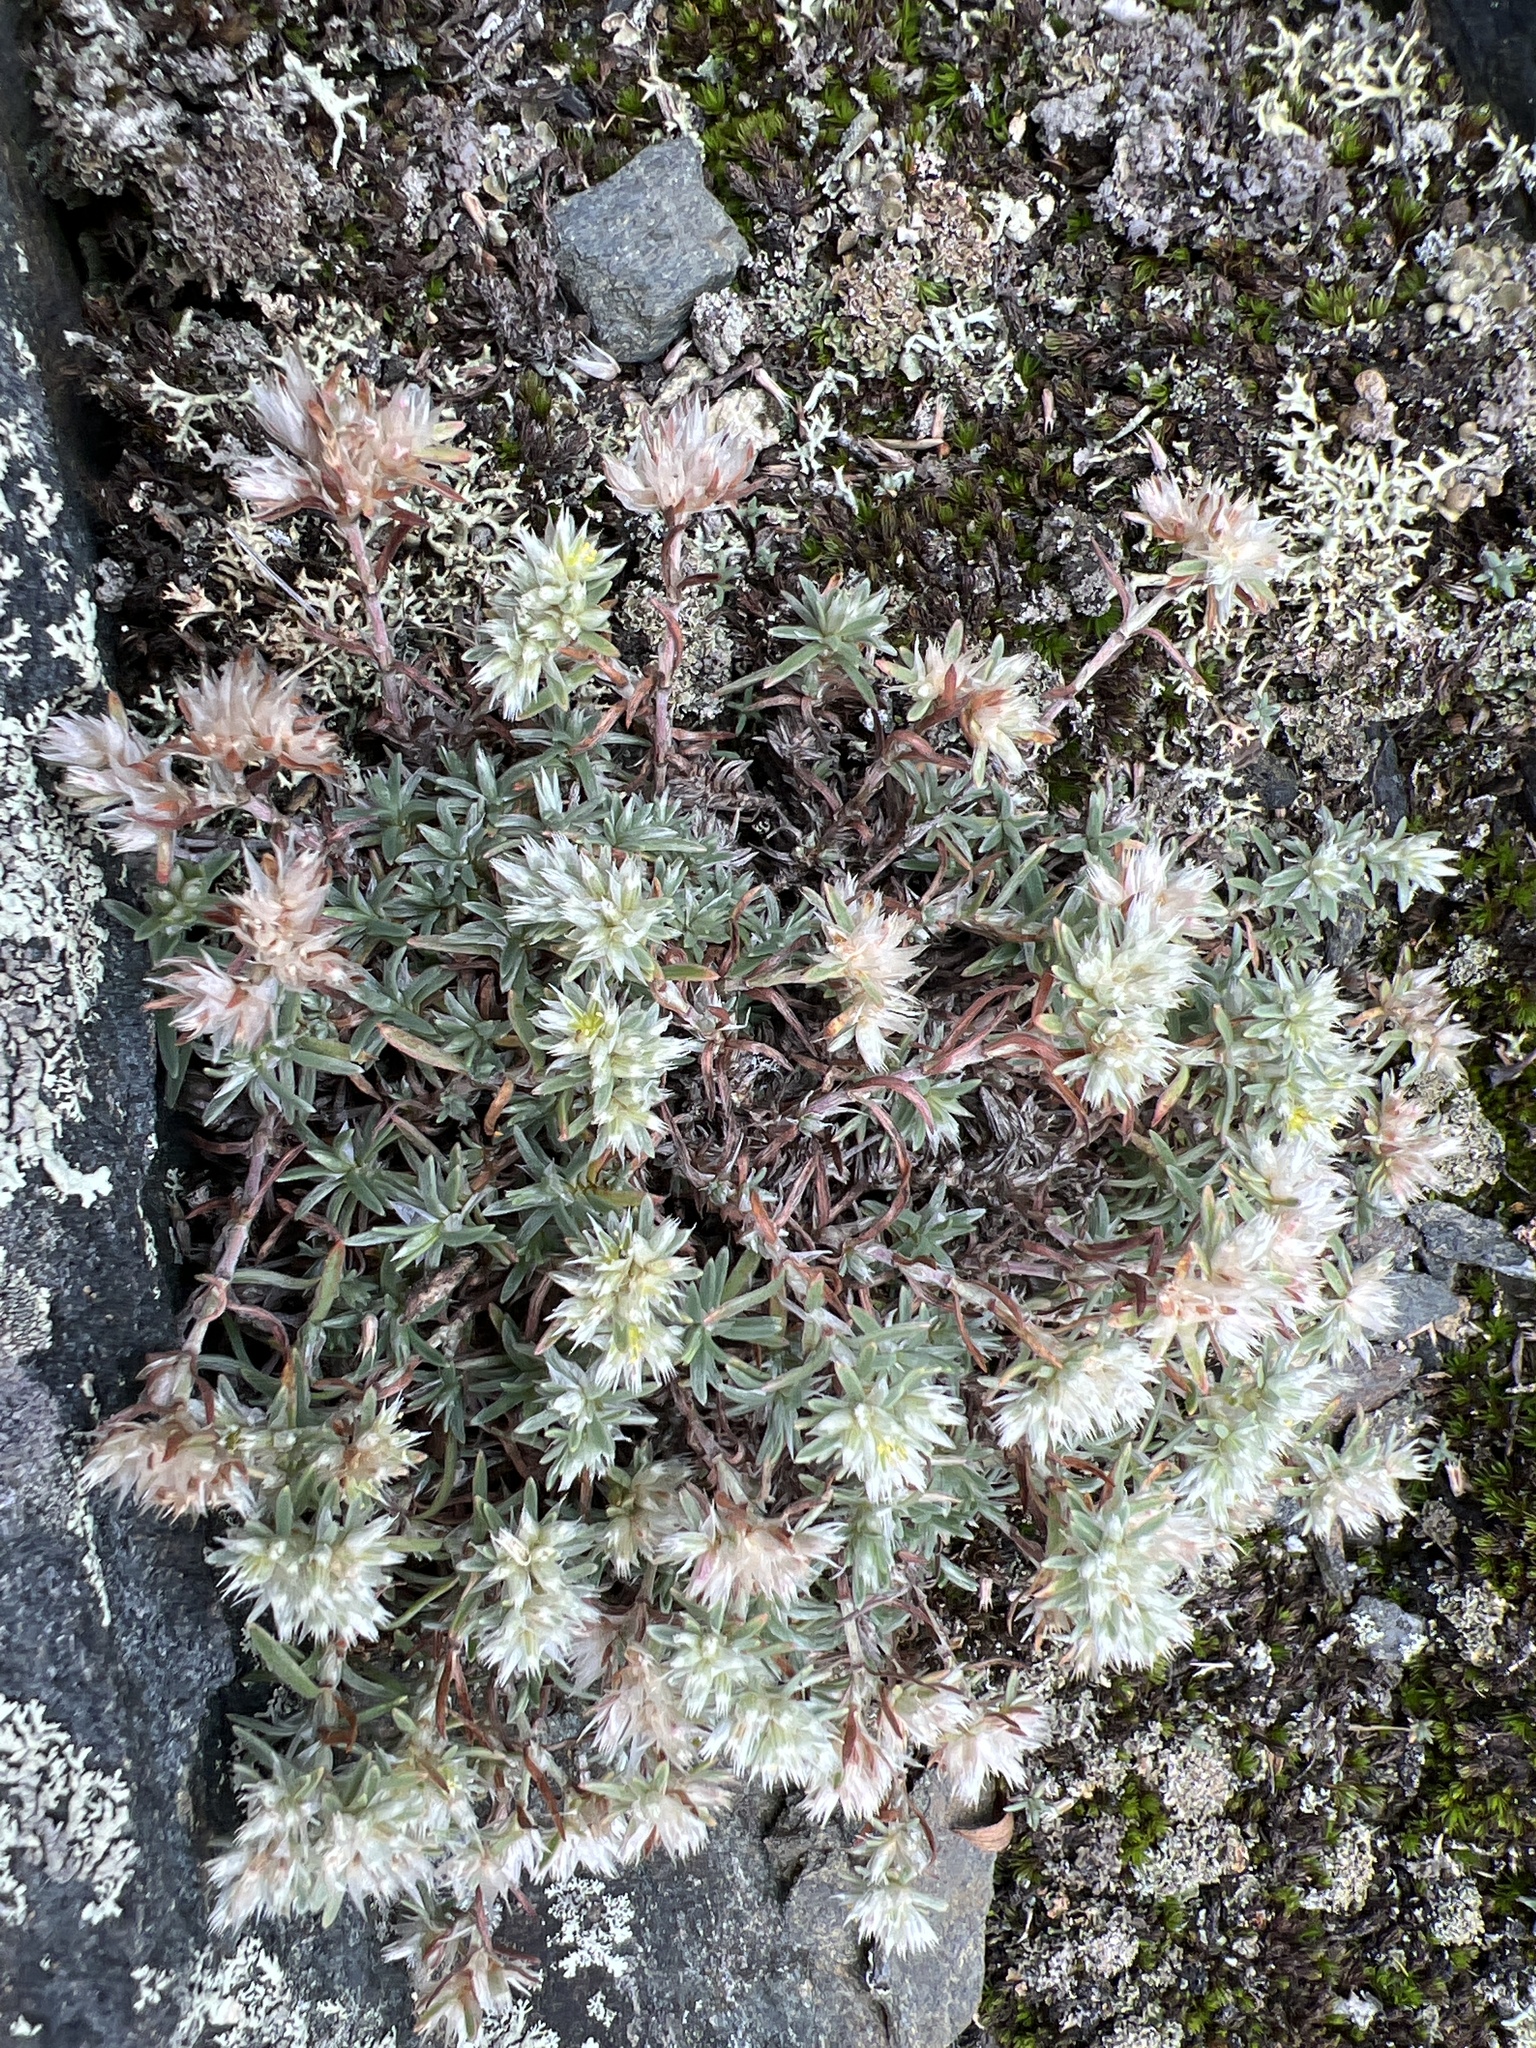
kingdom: Plantae
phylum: Tracheophyta
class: Magnoliopsida
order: Caryophyllales
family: Caryophyllaceae
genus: Paronychia
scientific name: Paronychia argyrocoma
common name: Silverling
